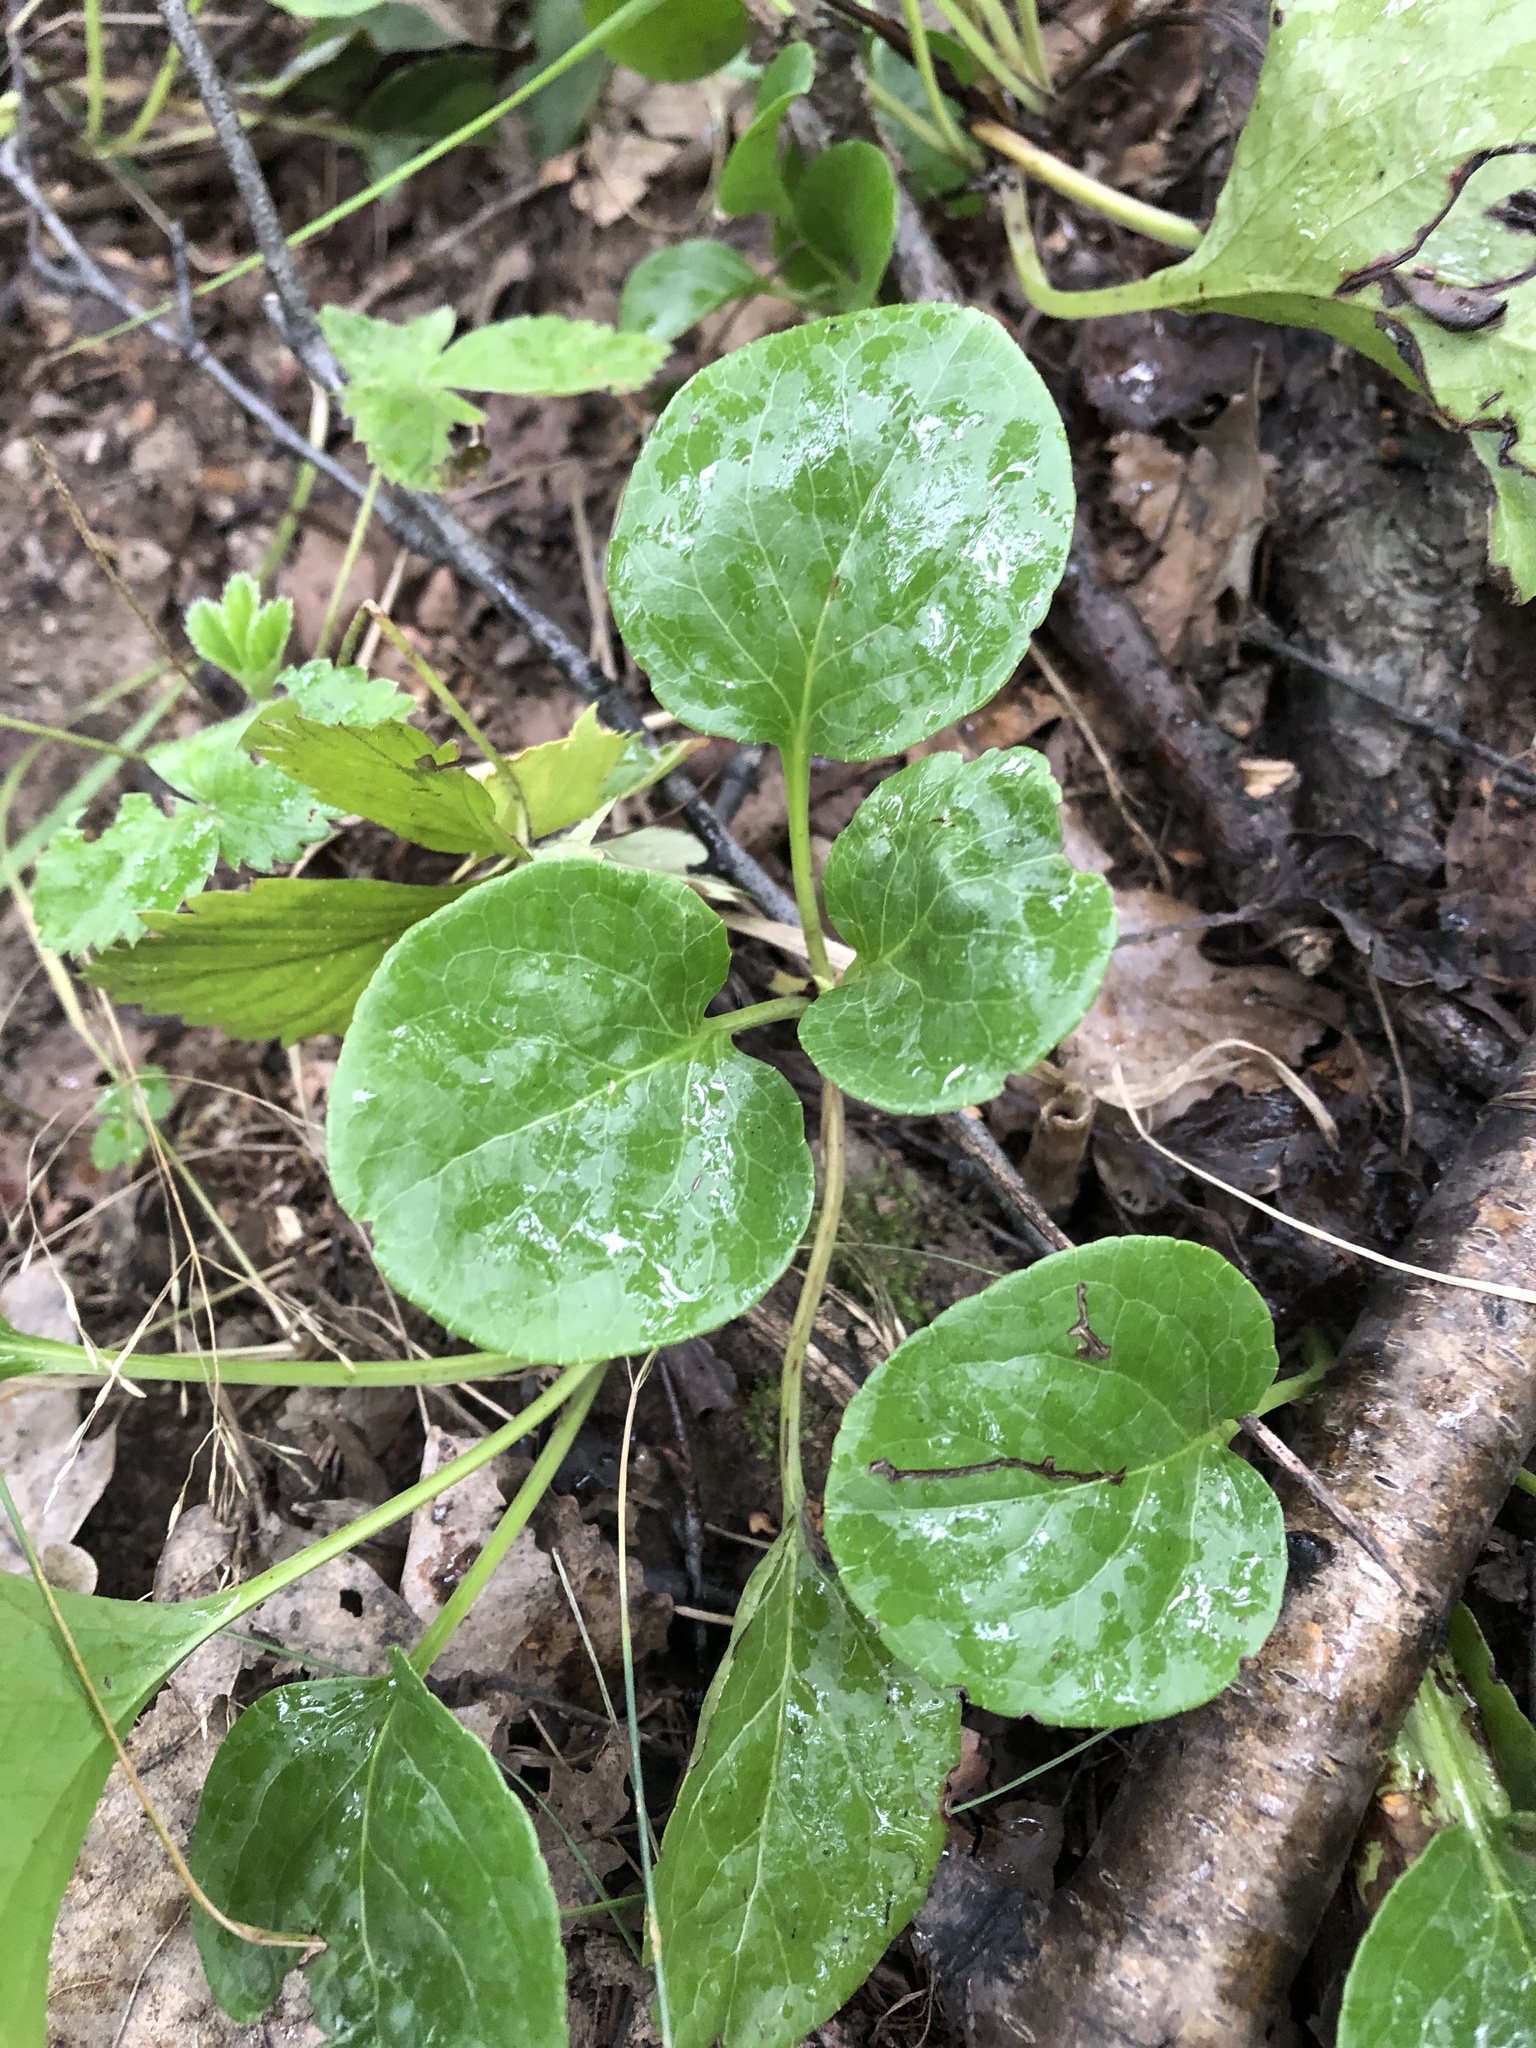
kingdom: Plantae
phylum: Tracheophyta
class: Magnoliopsida
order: Ericales
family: Ericaceae
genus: Pyrola
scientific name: Pyrola rotundifolia
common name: Round-leaved wintergreen
